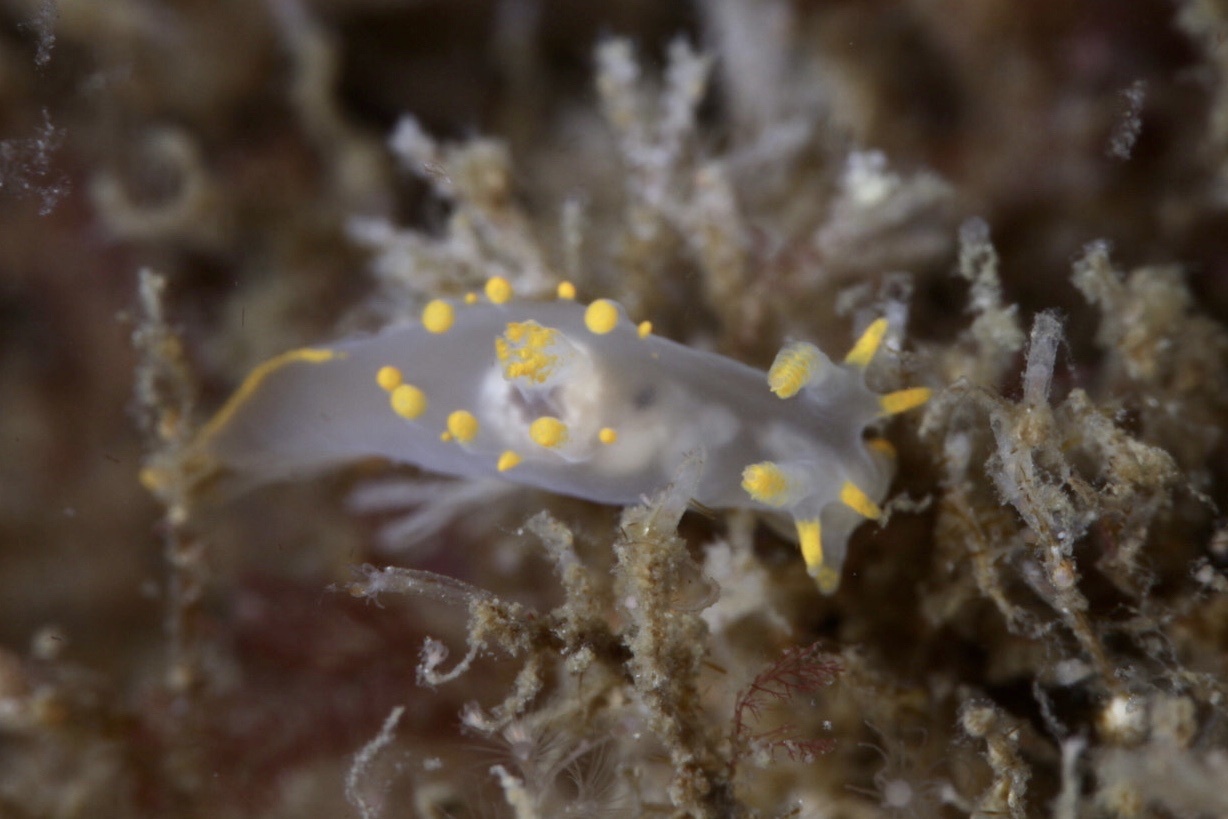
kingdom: Animalia
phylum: Mollusca
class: Gastropoda
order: Nudibranchia
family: Goniodorididae
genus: Ancula
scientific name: Ancula gibbosa
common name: Atlantic ancula
